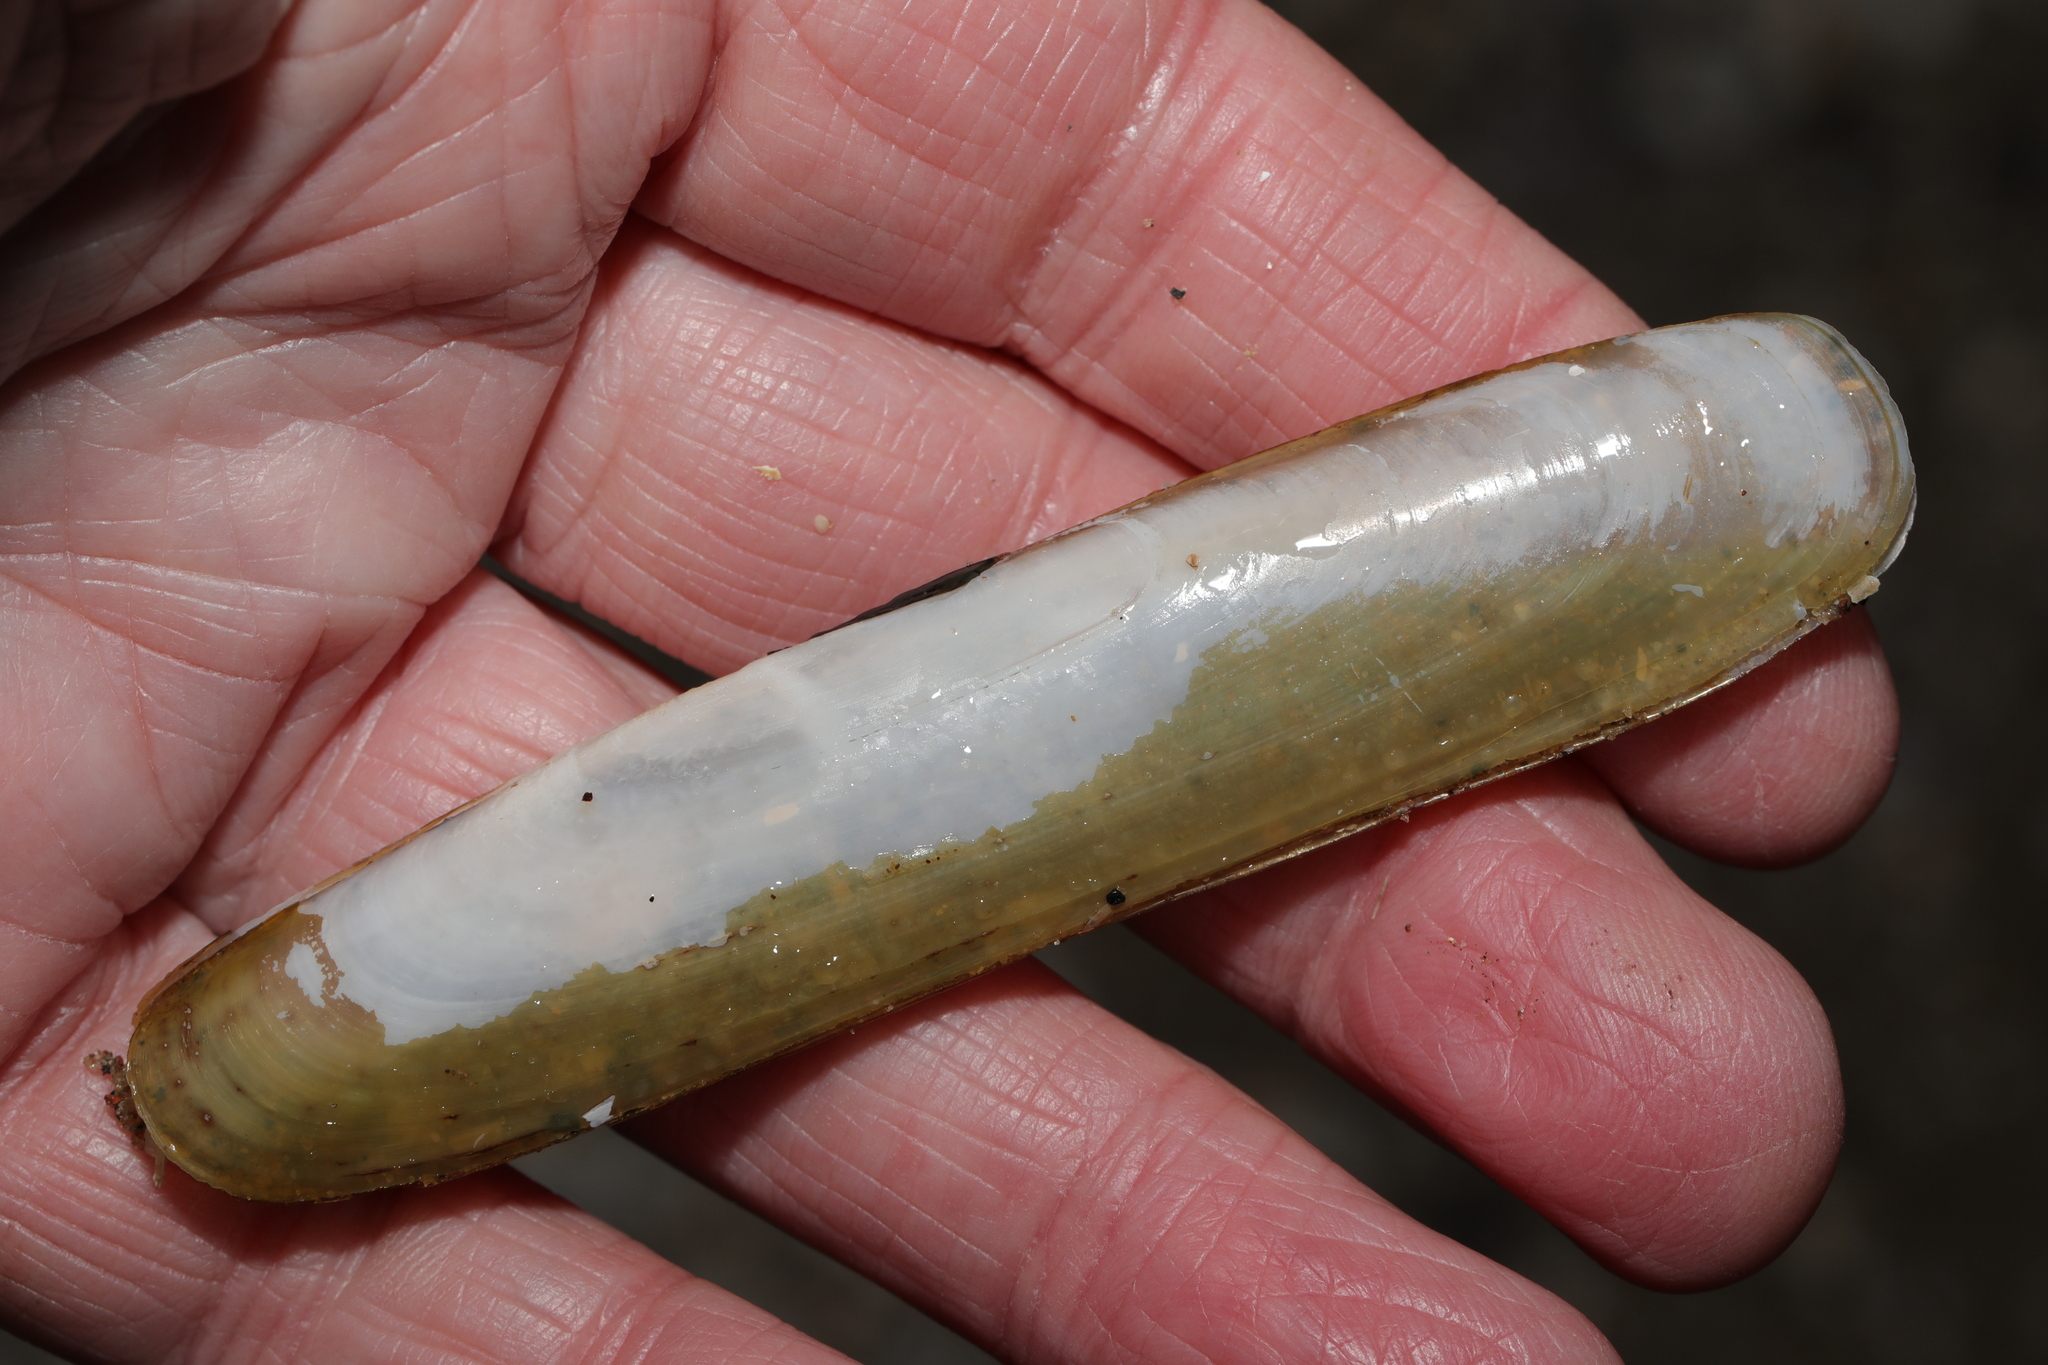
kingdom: Animalia
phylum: Mollusca
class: Bivalvia
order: Adapedonta
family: Pharidae
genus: Pharus
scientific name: Pharus legumen
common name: Bean razor clam
